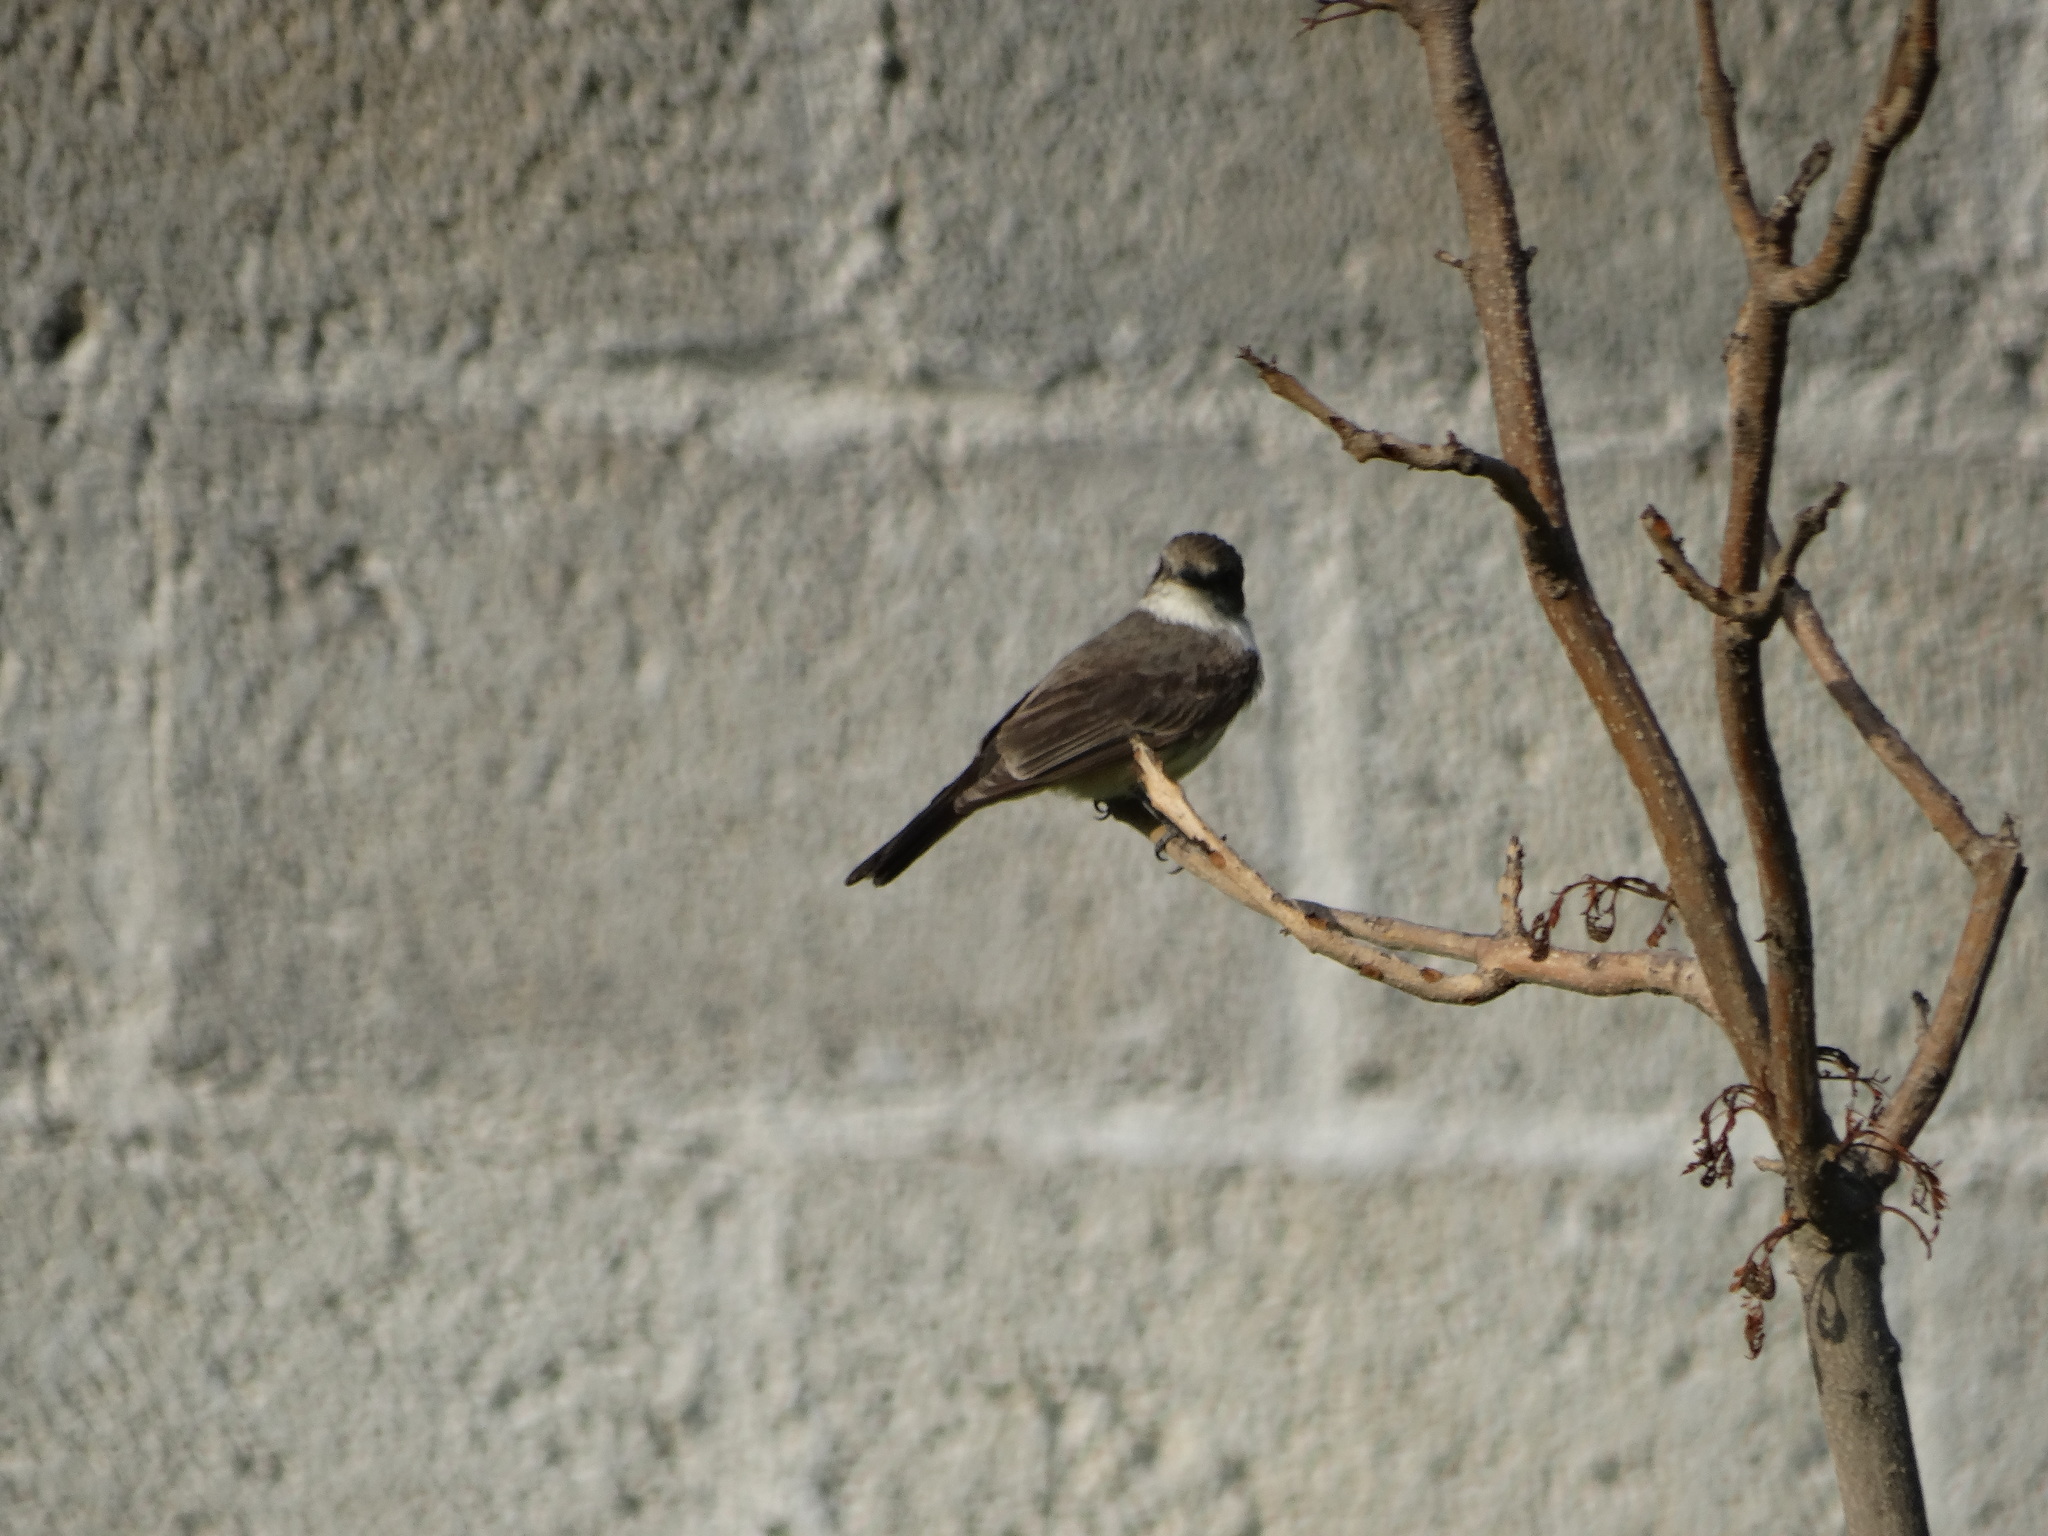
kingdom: Animalia
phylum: Chordata
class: Aves
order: Passeriformes
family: Tyrannidae
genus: Pyrocephalus
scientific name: Pyrocephalus rubinus
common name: Vermilion flycatcher
